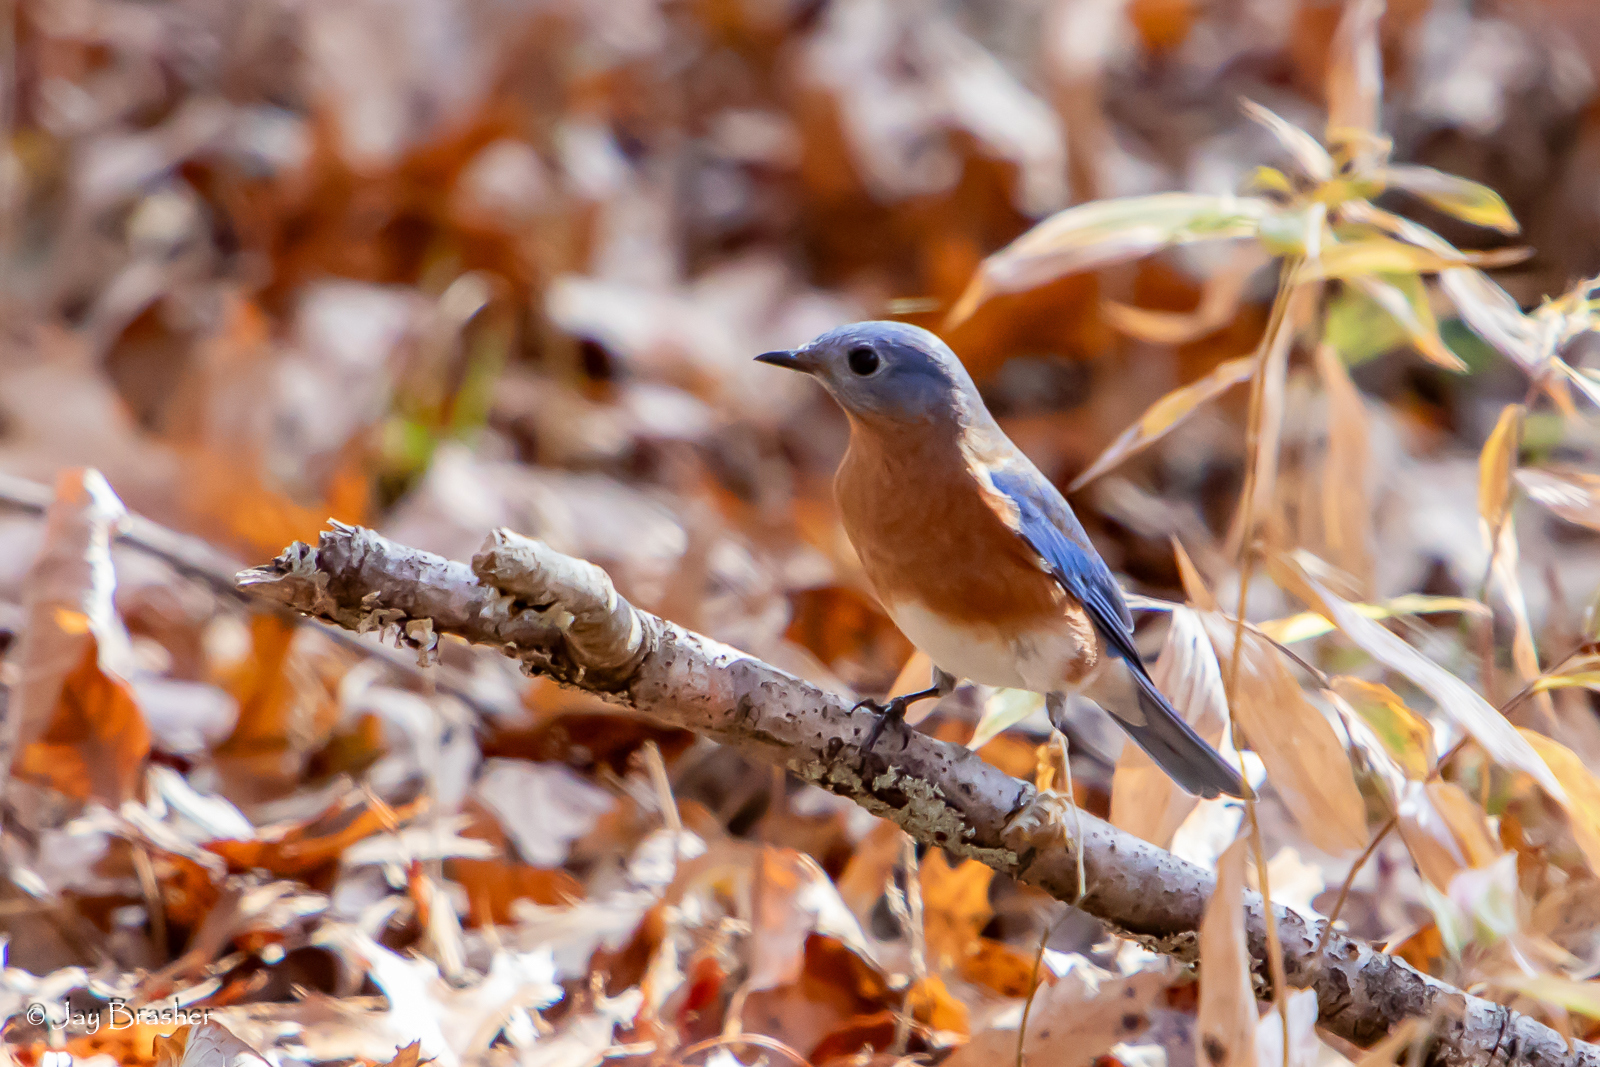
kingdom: Animalia
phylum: Chordata
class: Aves
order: Passeriformes
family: Turdidae
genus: Sialia
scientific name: Sialia sialis
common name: Eastern bluebird
